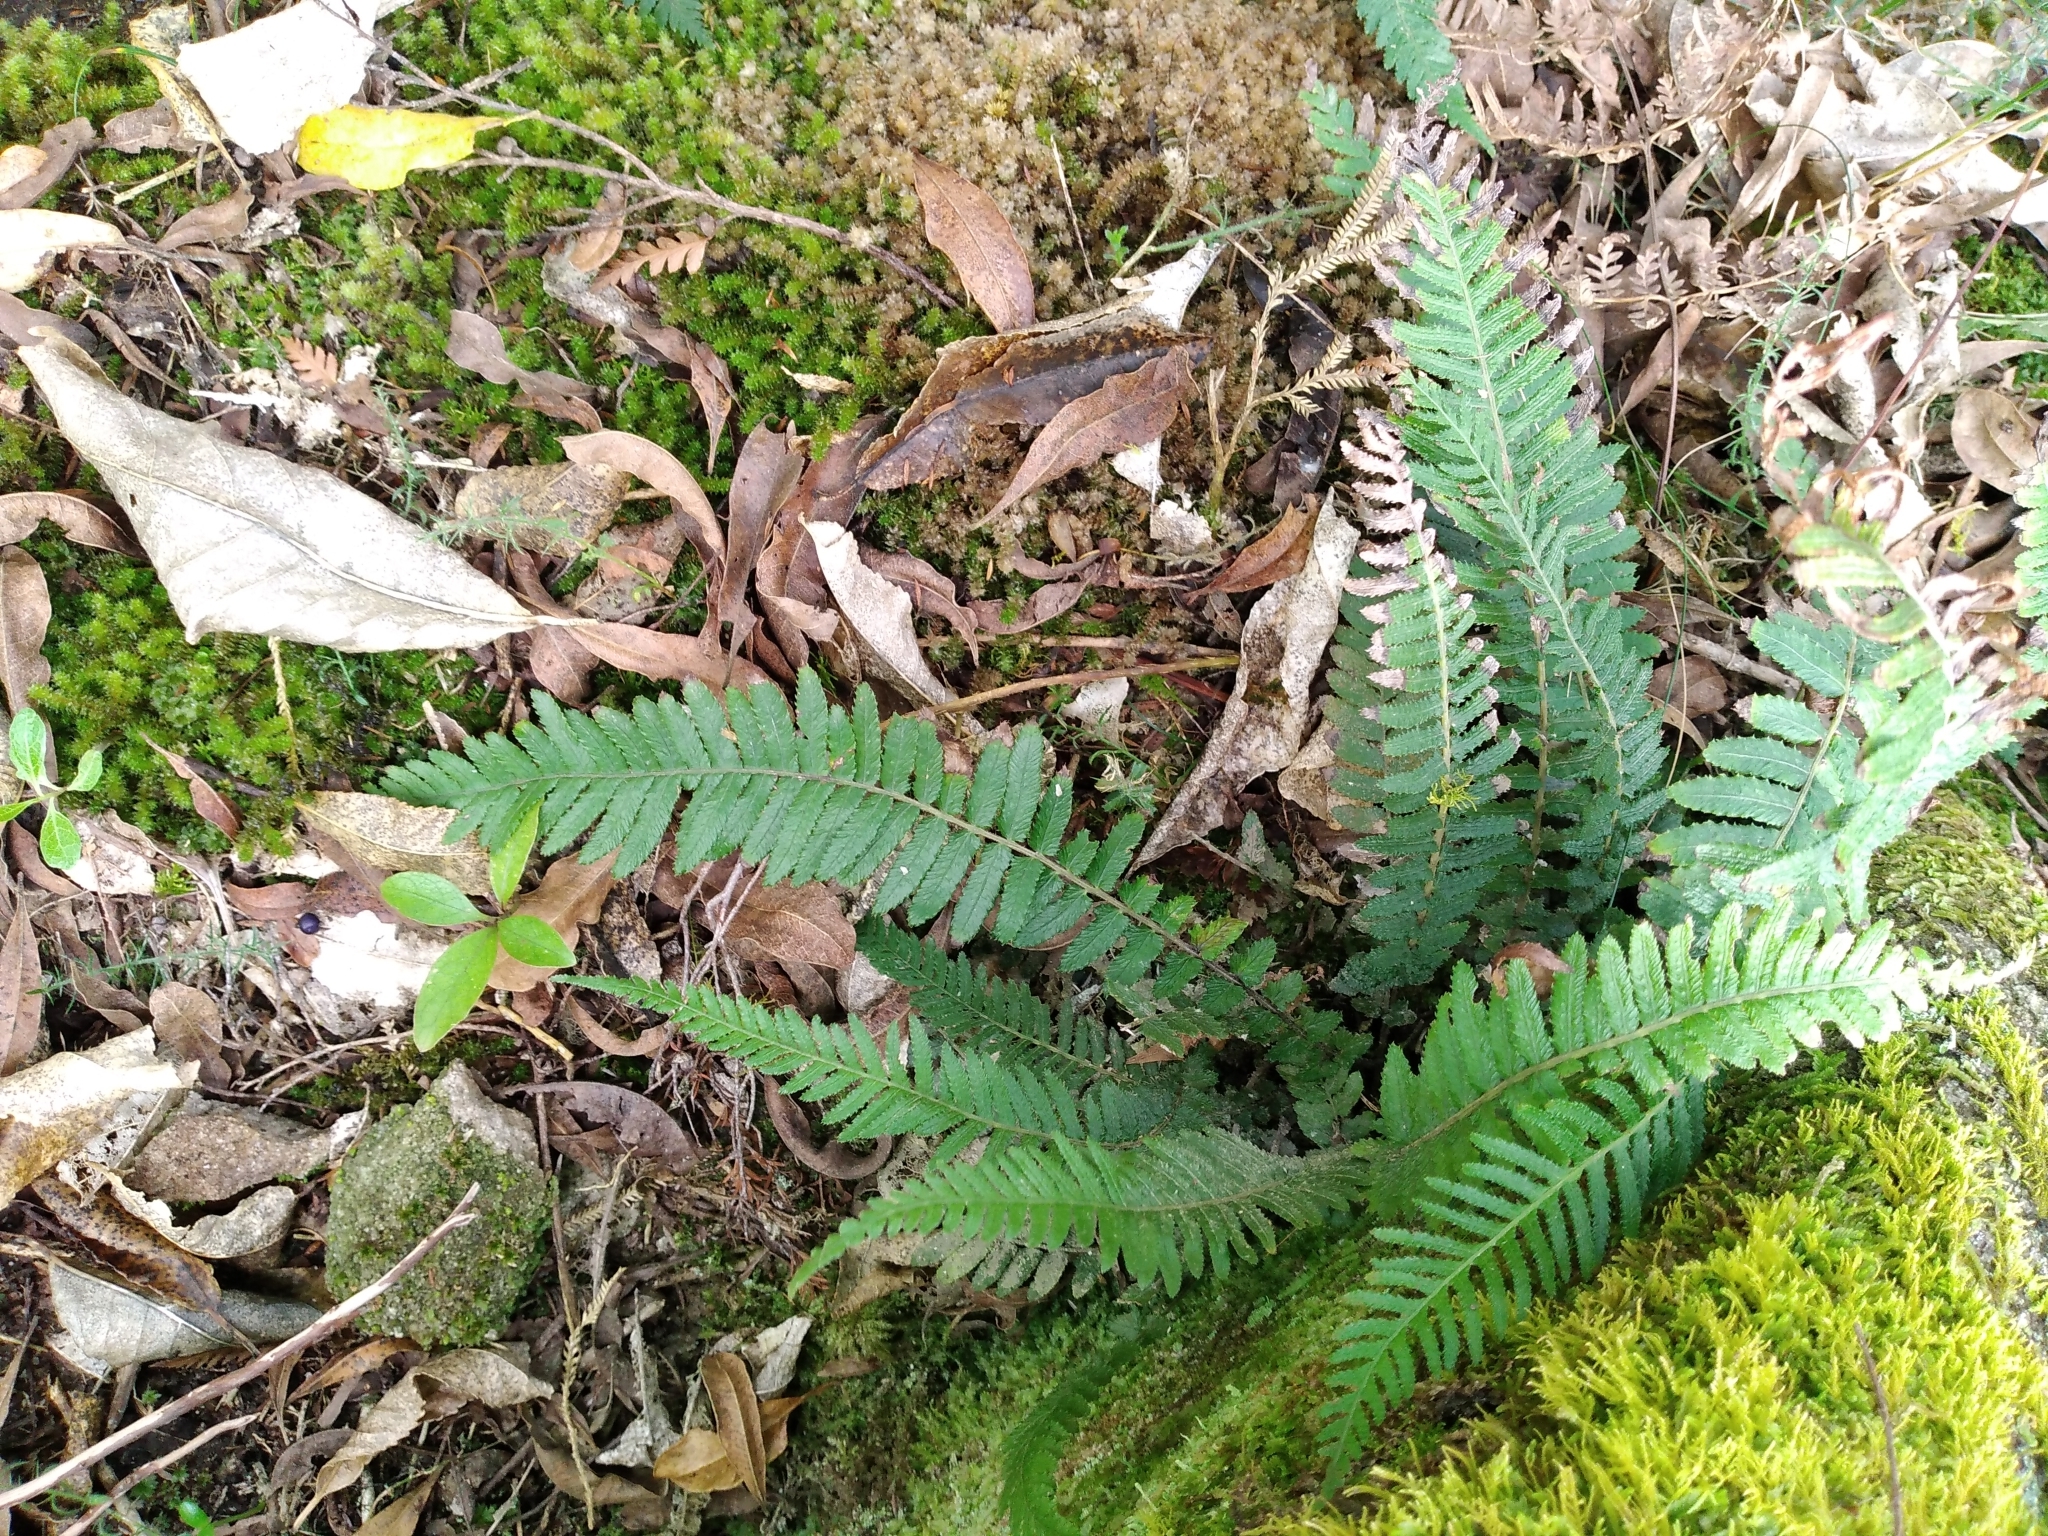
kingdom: Plantae
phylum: Tracheophyta
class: Polypodiopsida
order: Polypodiales
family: Blechnaceae
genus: Doodia
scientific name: Doodia australis
